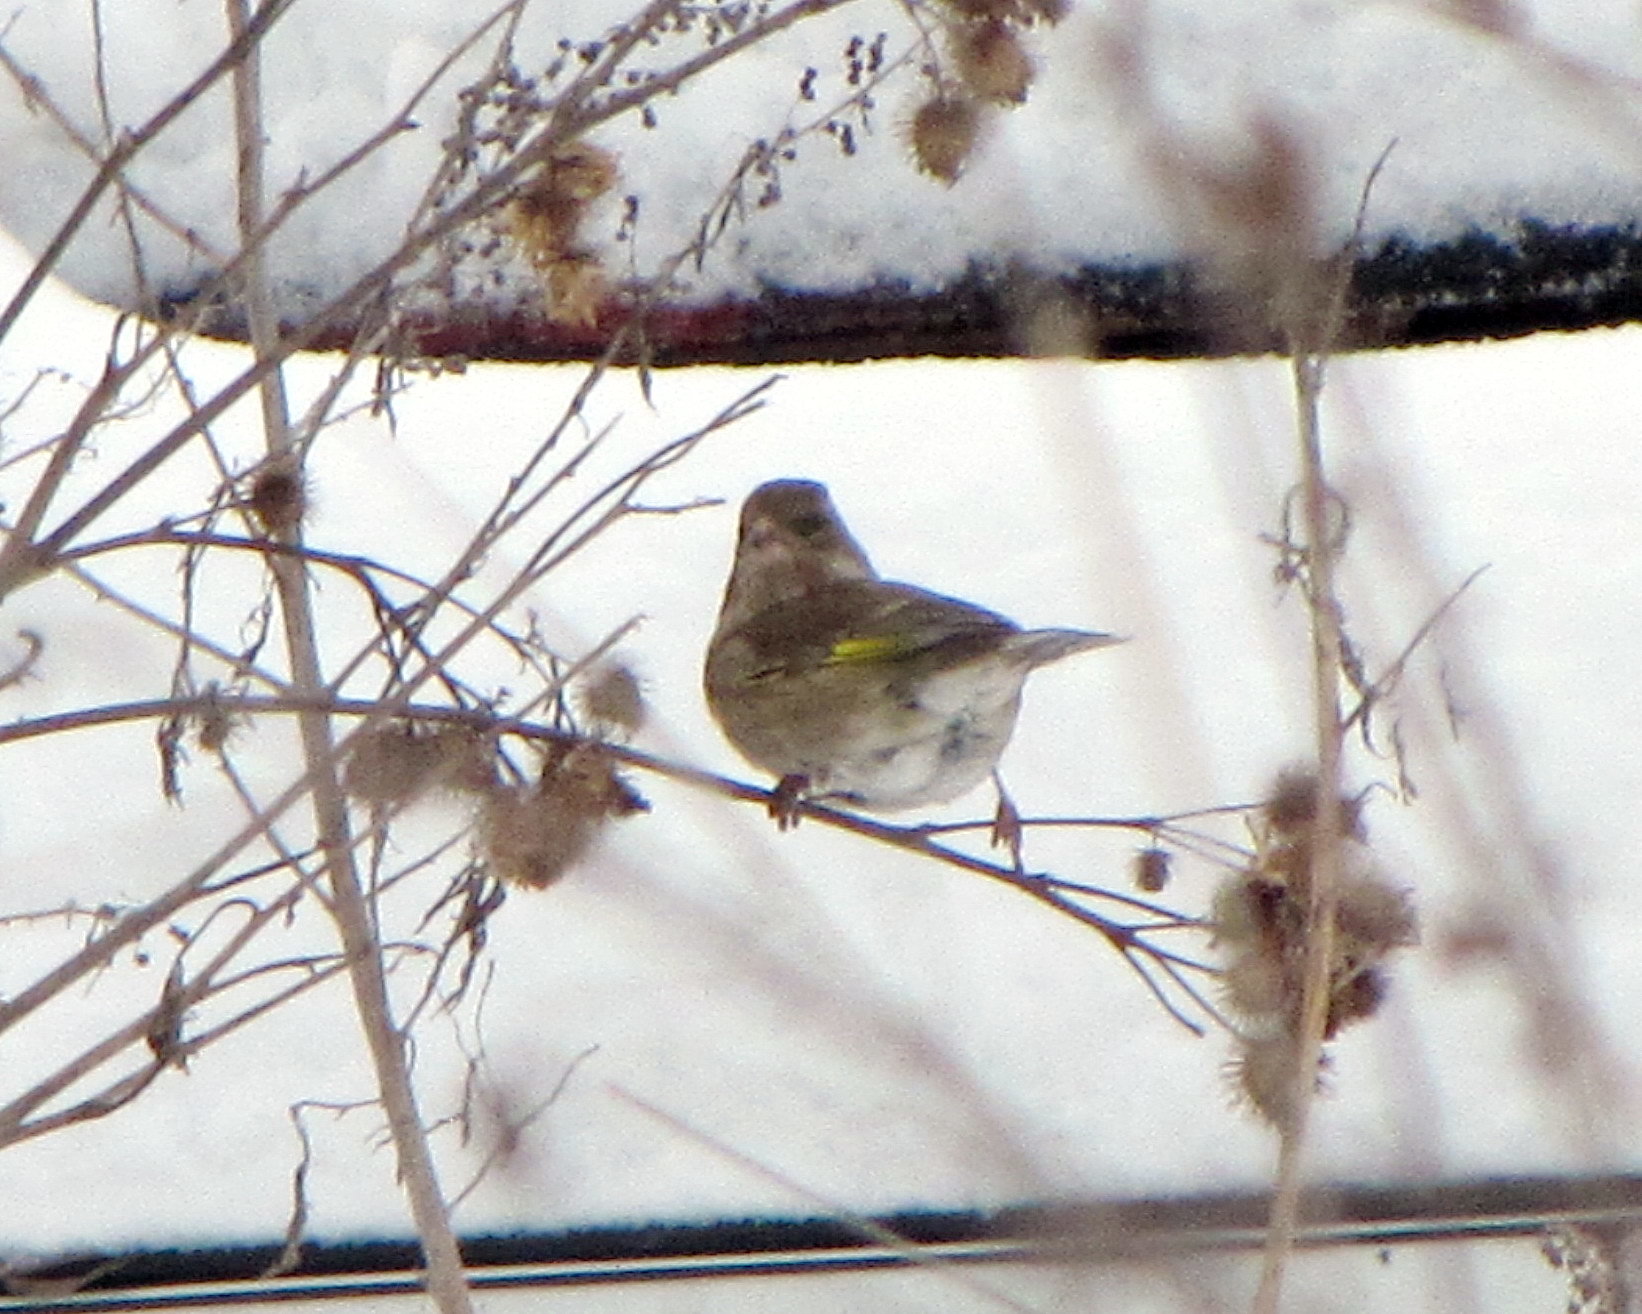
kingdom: Plantae
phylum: Tracheophyta
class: Liliopsida
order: Poales
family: Poaceae
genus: Chloris
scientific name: Chloris chloris
